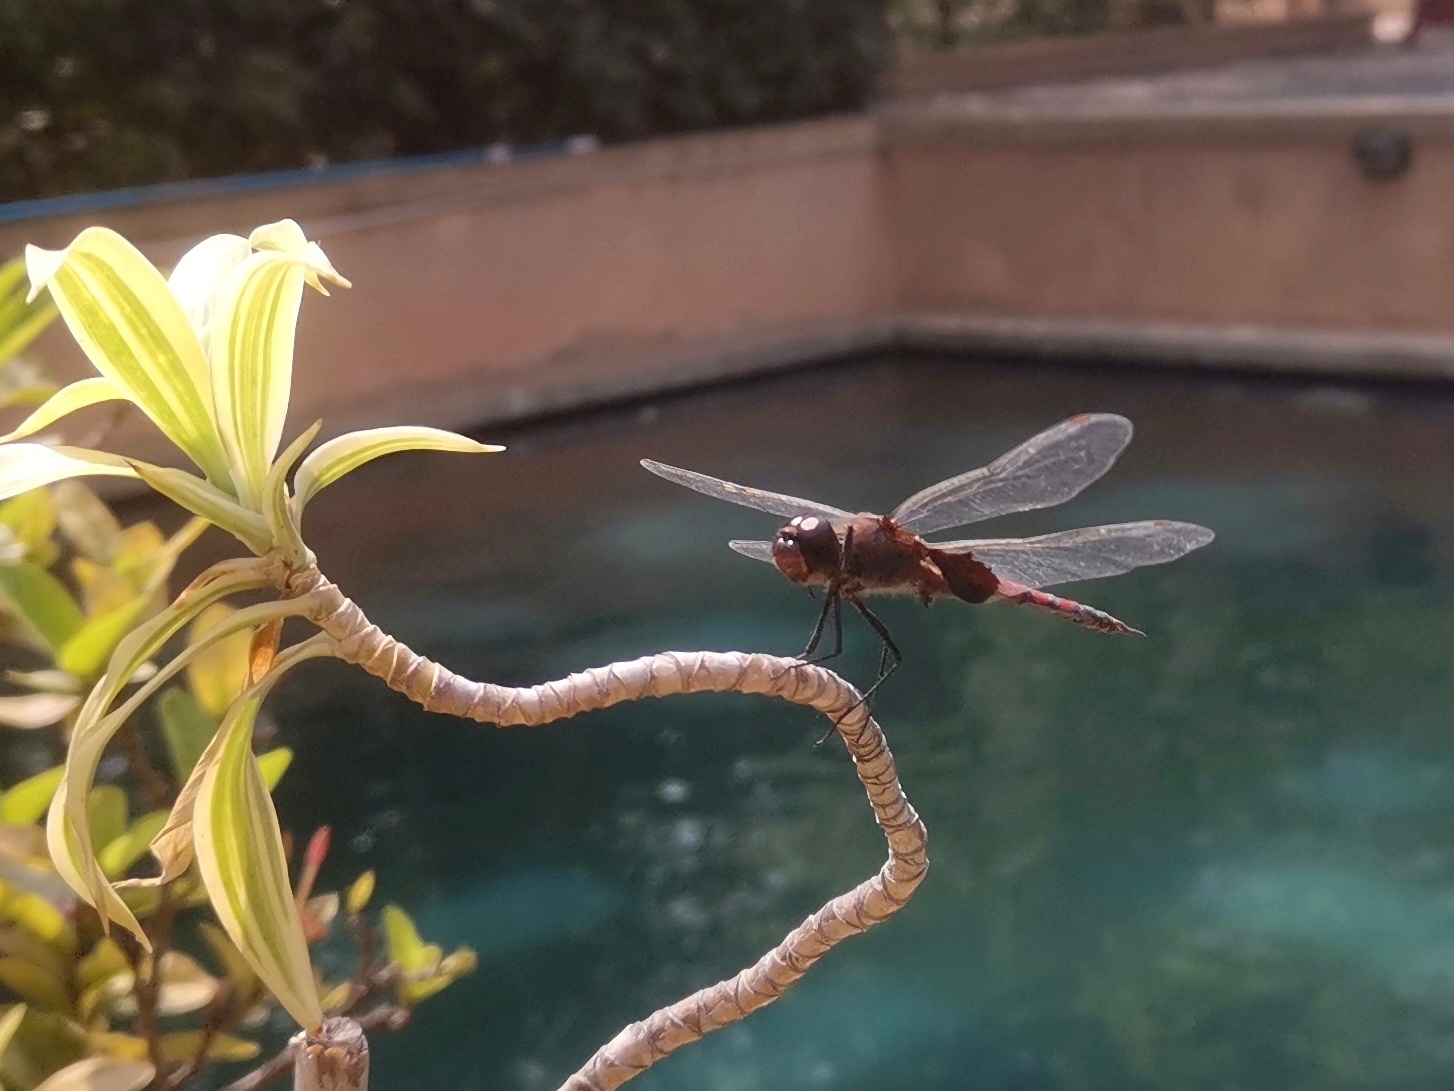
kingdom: Animalia
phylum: Arthropoda
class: Insecta
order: Odonata
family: Libellulidae
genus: Tramea
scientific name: Tramea limbata
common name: Ferruginous glider
